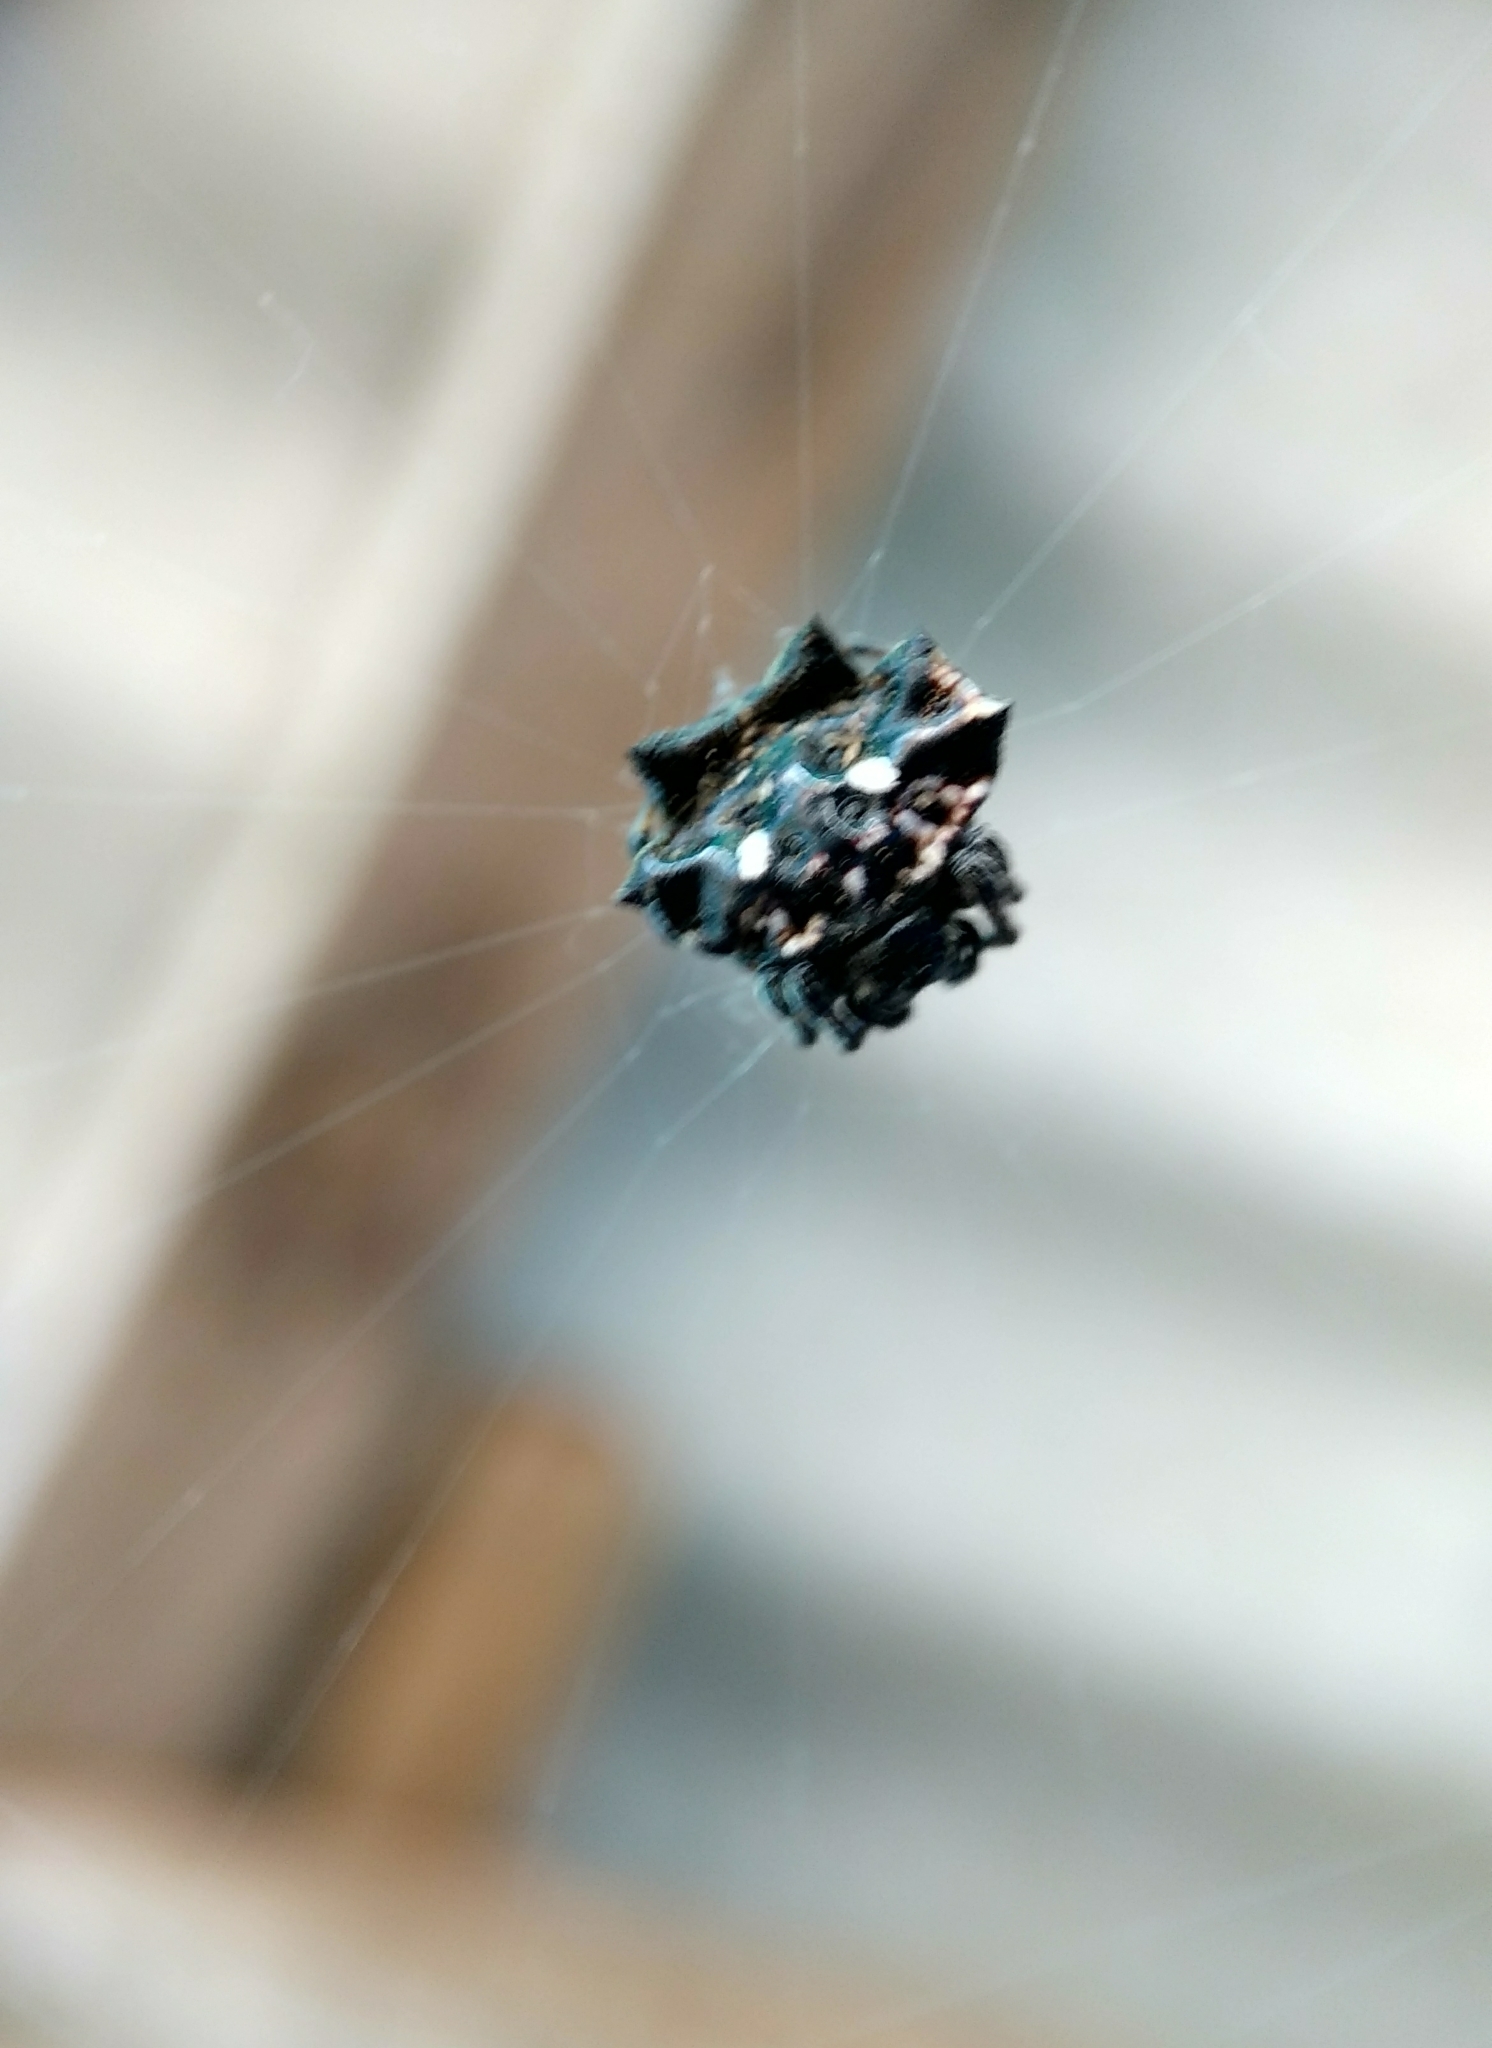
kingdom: Animalia
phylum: Arthropoda
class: Arachnida
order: Araneae
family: Araneidae
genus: Thelacantha
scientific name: Thelacantha brevispina
